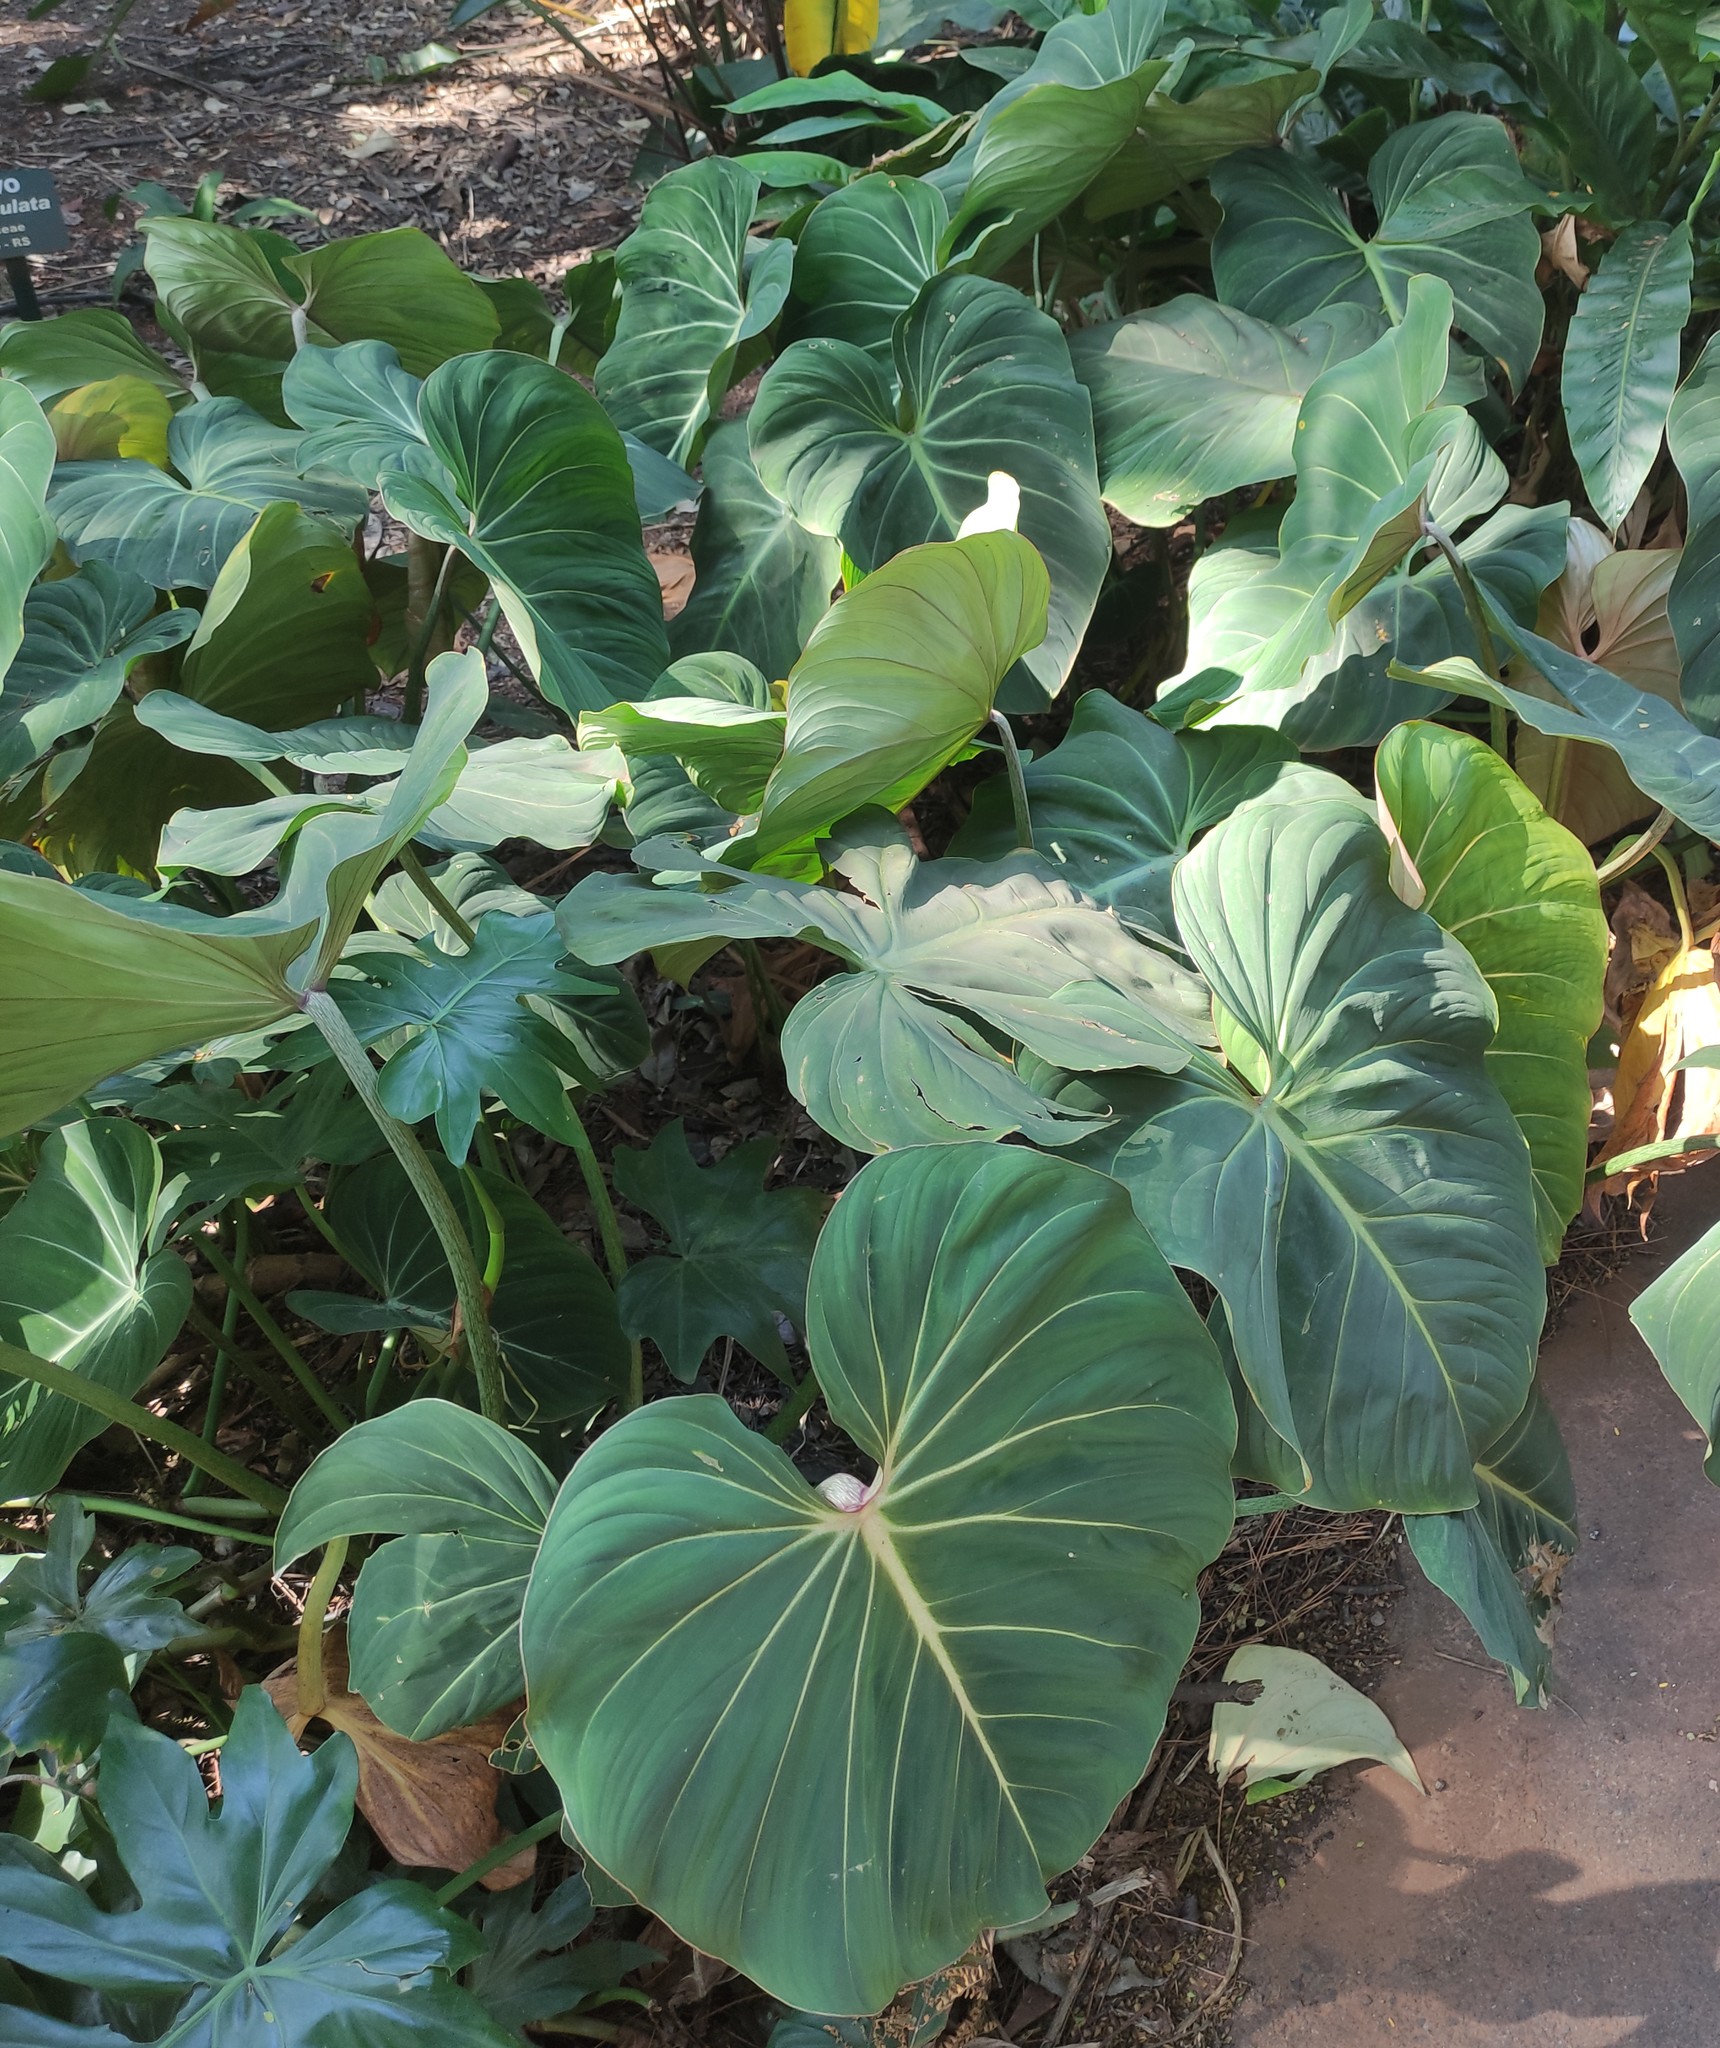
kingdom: Plantae
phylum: Tracheophyta
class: Liliopsida
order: Alismatales
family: Araceae
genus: Philodendron
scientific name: Philodendron gloriosum
